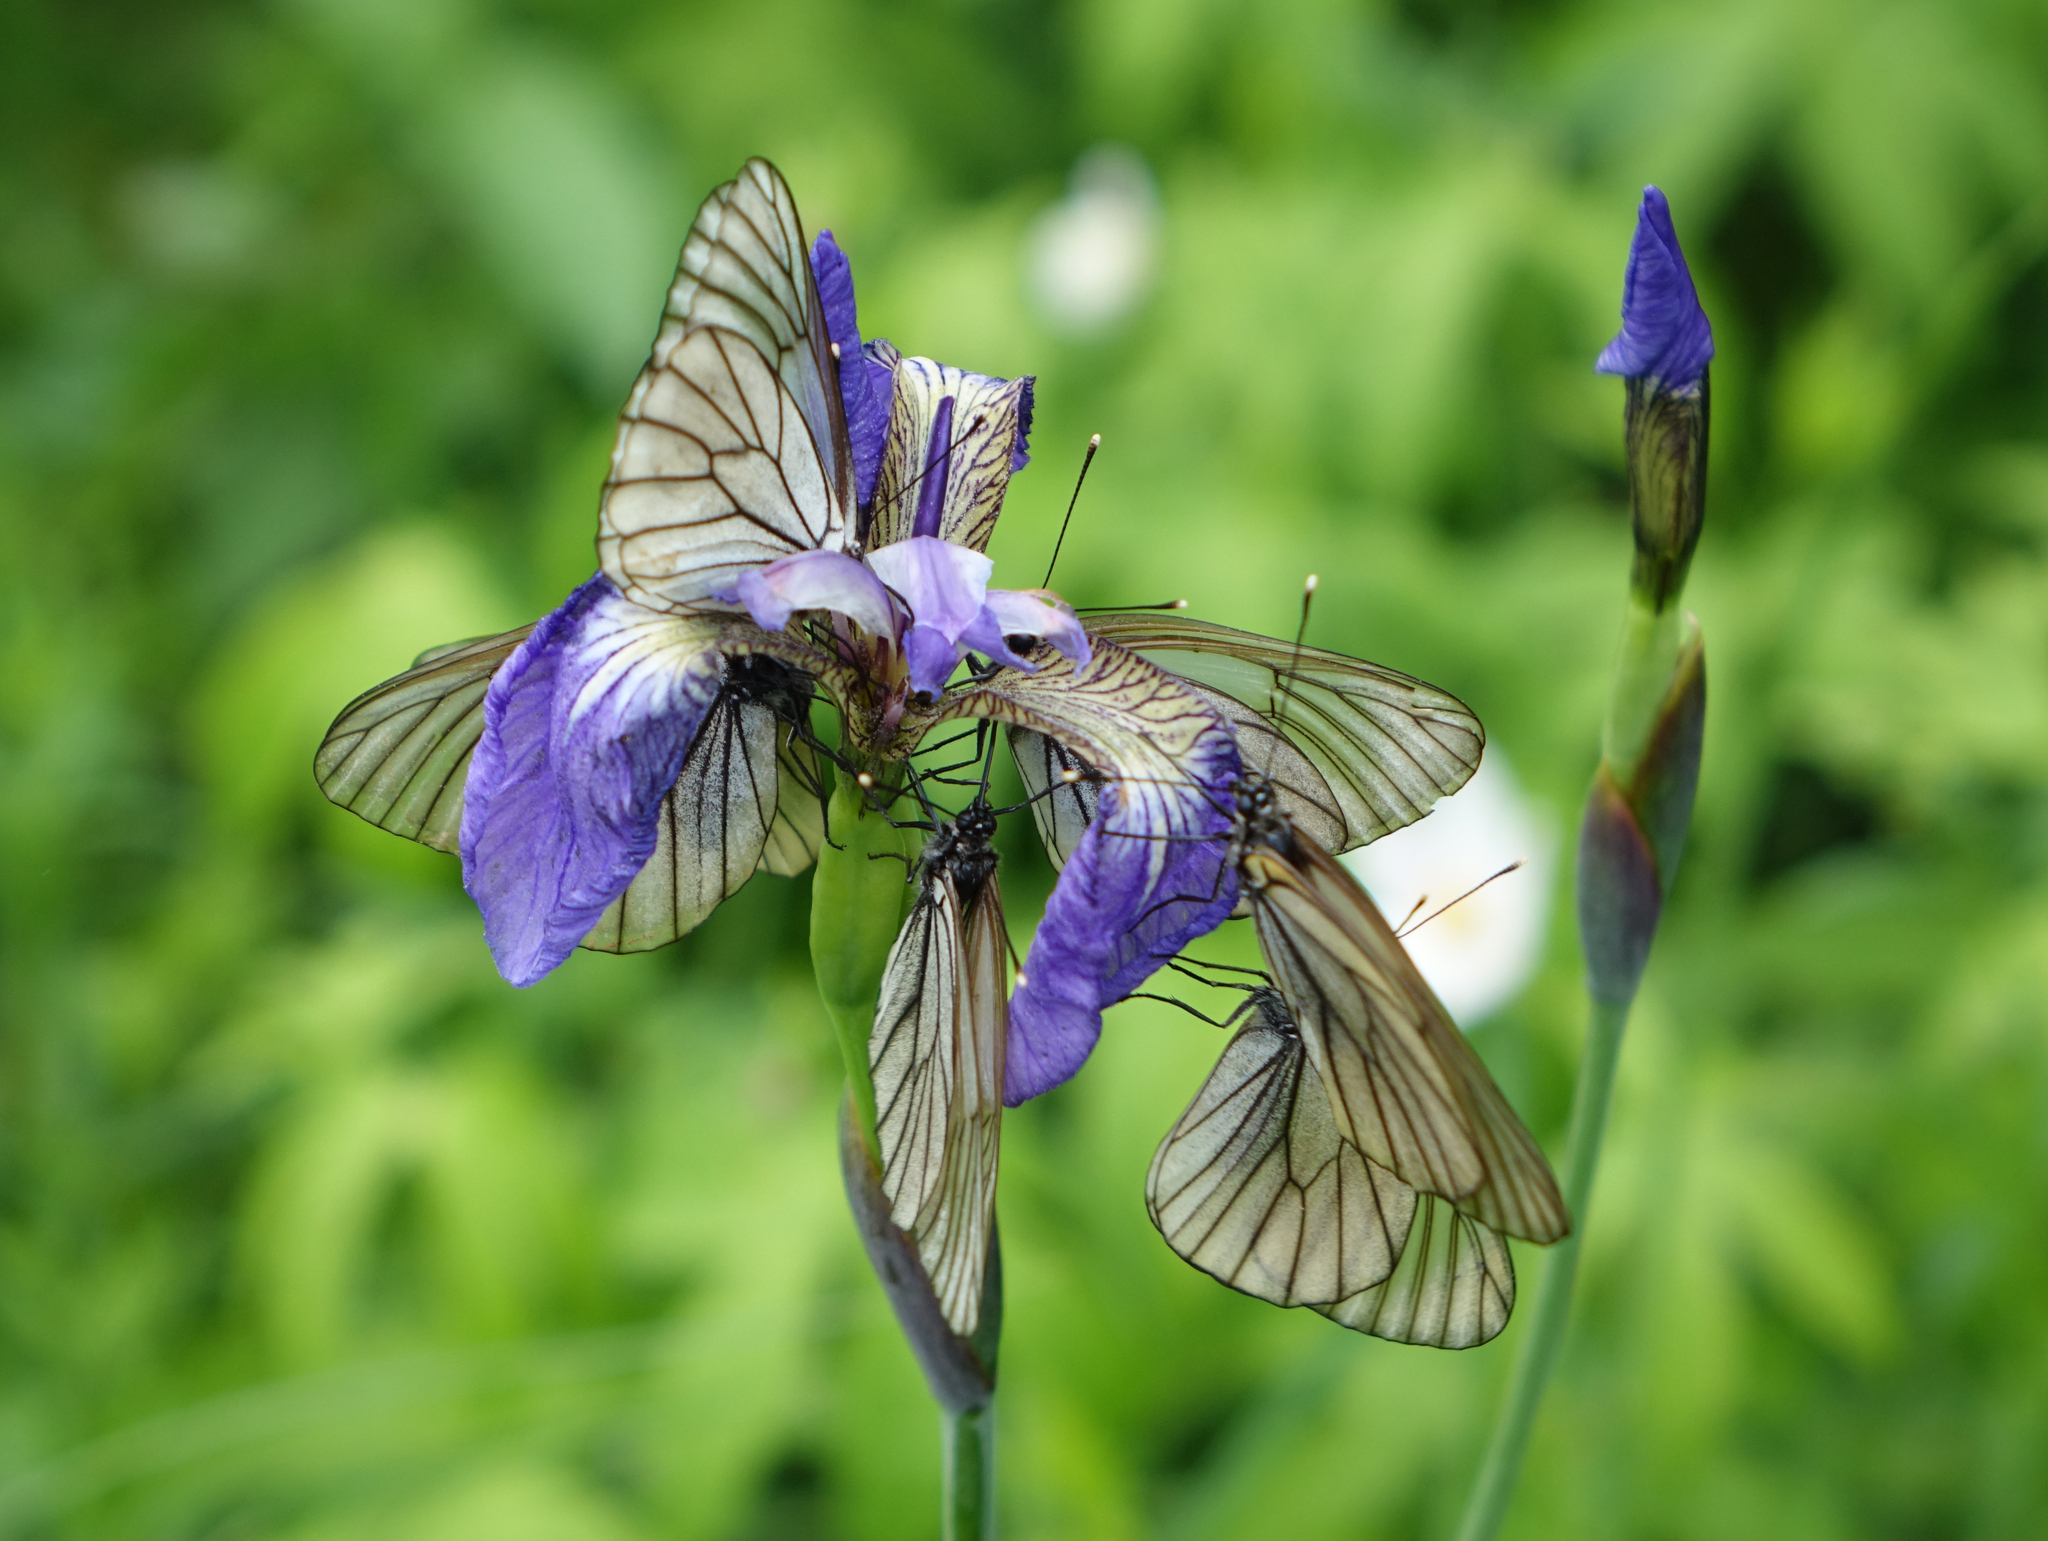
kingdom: Plantae
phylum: Tracheophyta
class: Liliopsida
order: Asparagales
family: Iridaceae
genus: Iris
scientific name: Iris setosa
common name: Arctic blue flag
